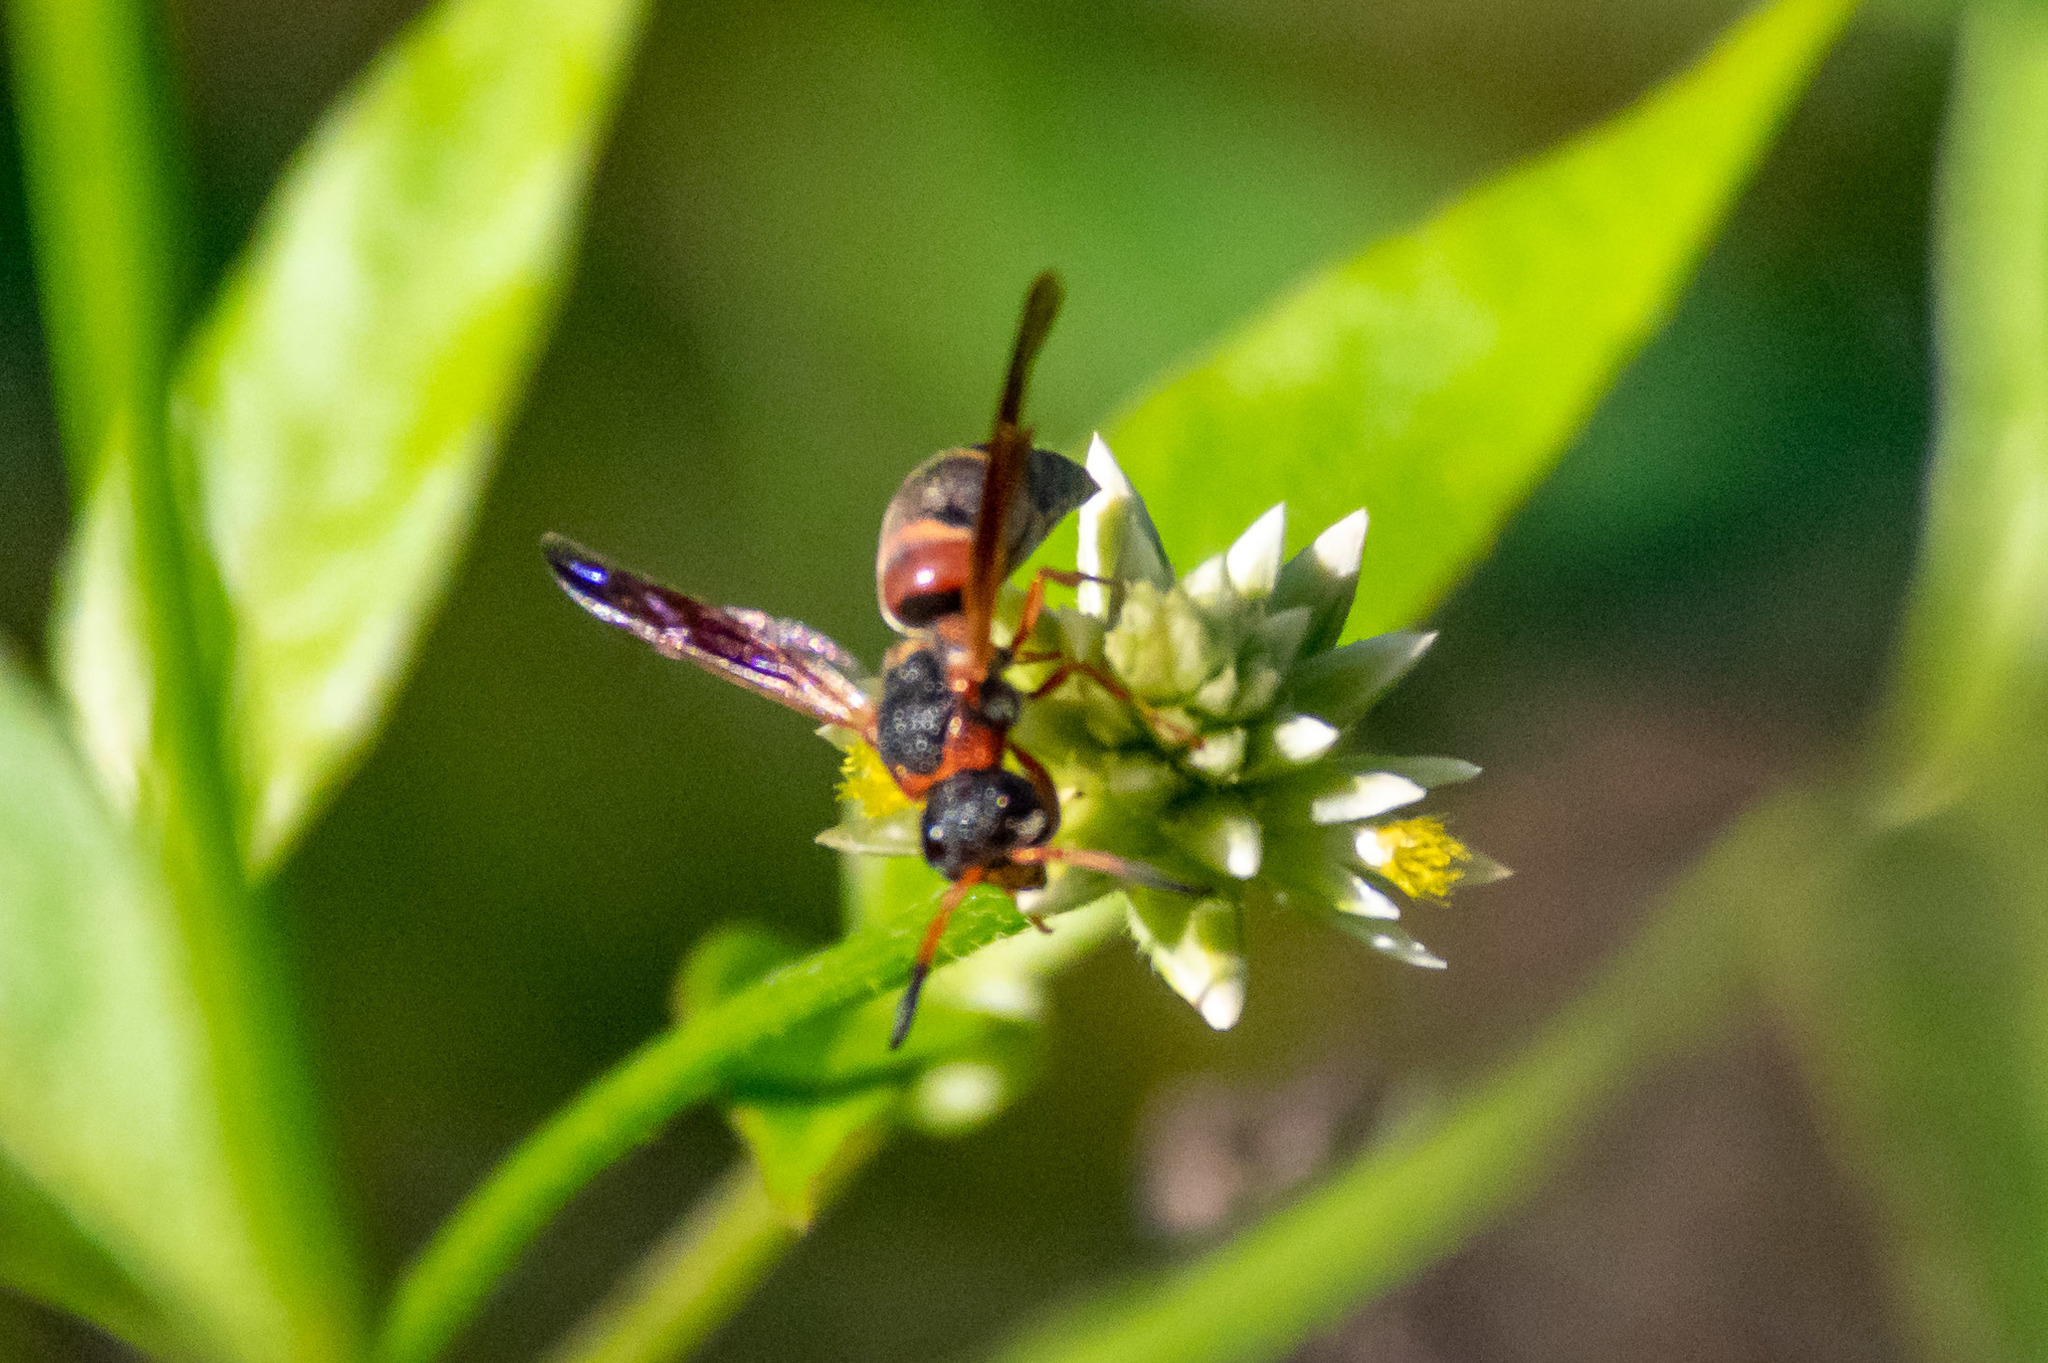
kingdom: Animalia
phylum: Arthropoda
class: Insecta
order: Hymenoptera
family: Eumenidae
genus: Pachodynerus
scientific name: Pachodynerus erynnis
